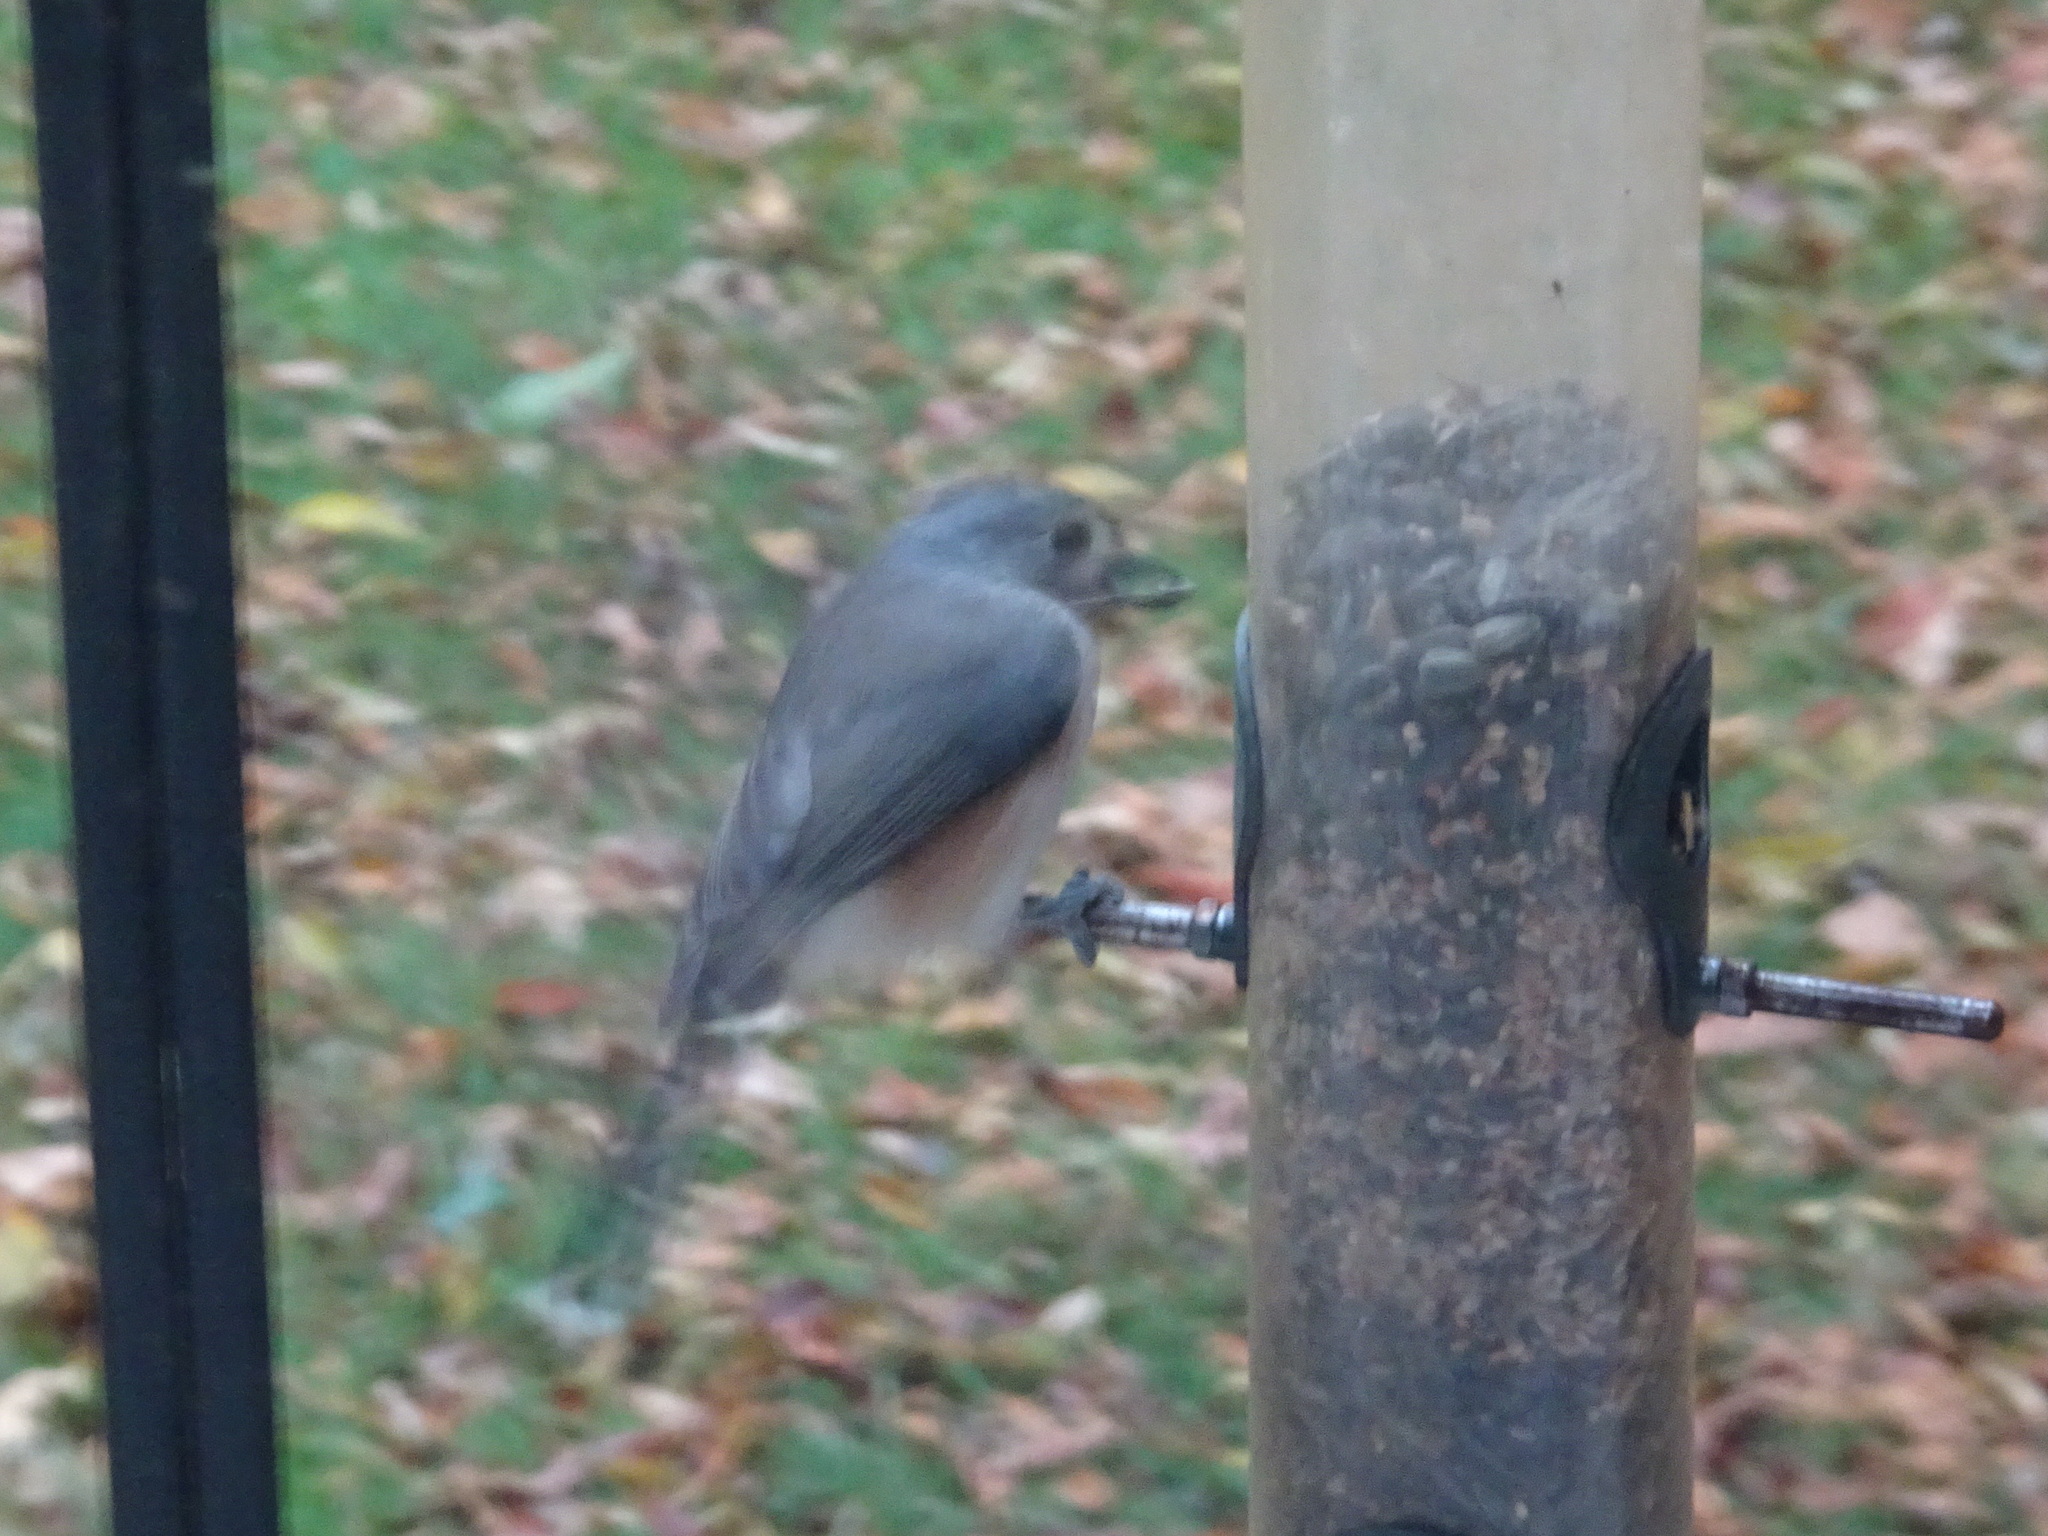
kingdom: Animalia
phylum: Chordata
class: Aves
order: Passeriformes
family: Paridae
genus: Baeolophus
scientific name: Baeolophus bicolor
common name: Tufted titmouse
